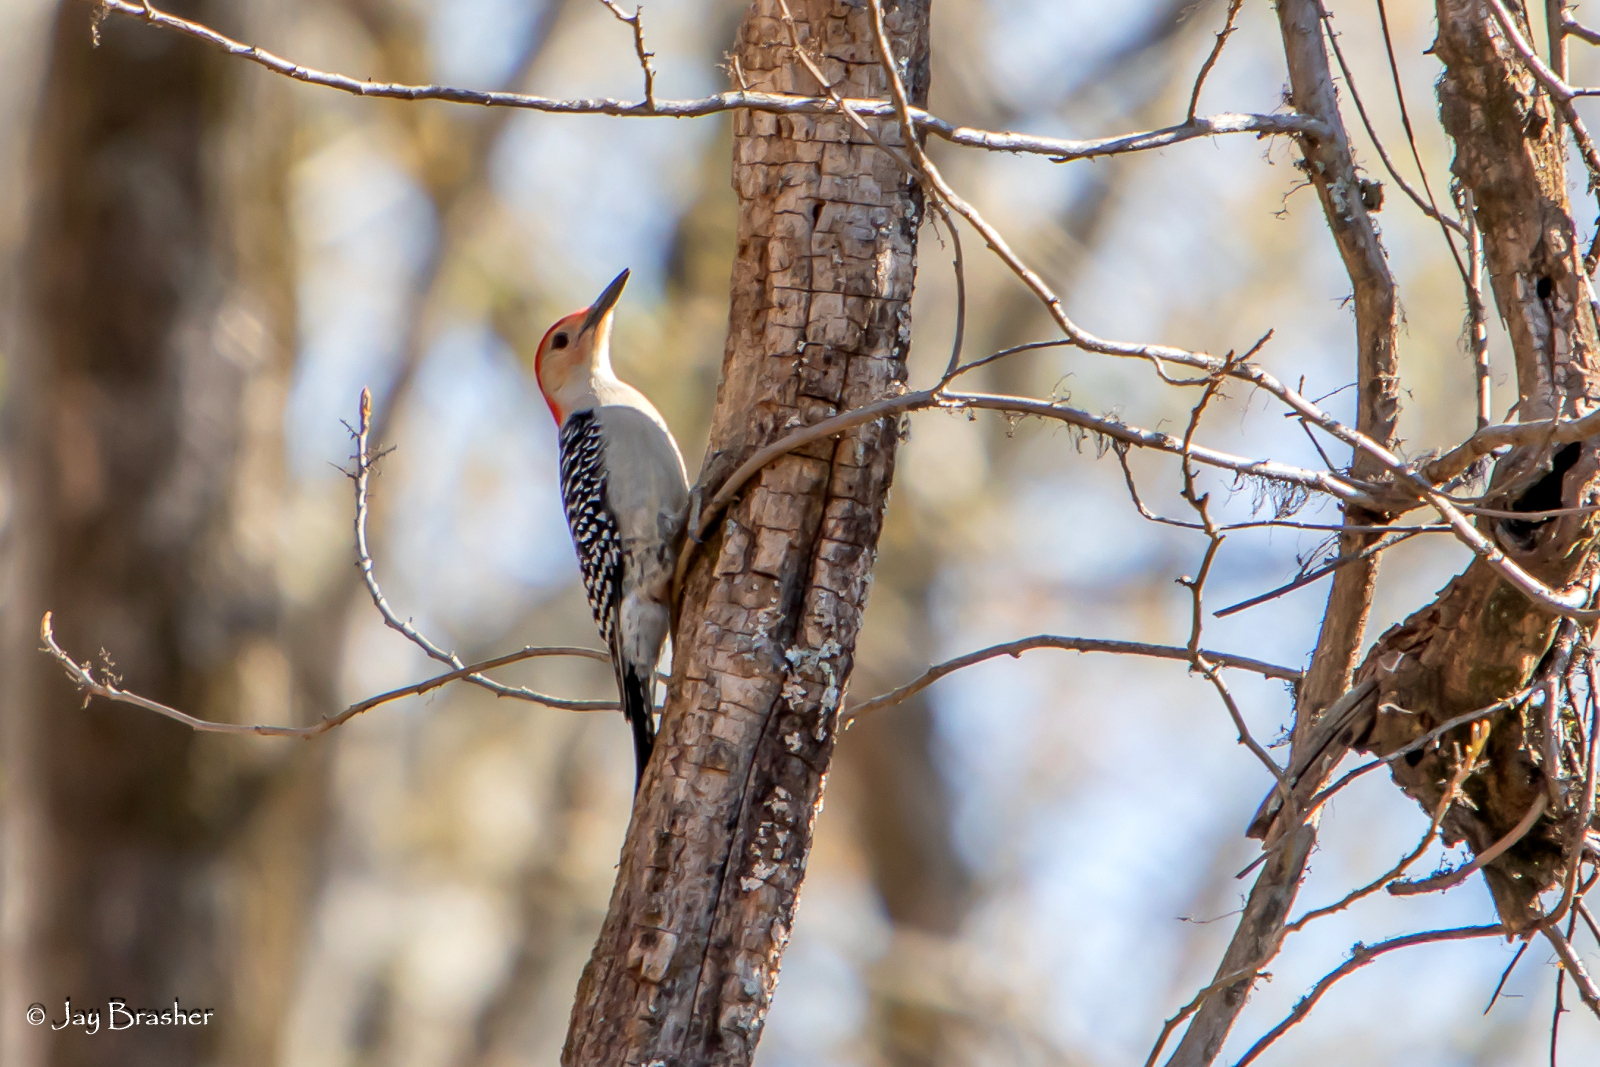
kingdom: Animalia
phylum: Chordata
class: Aves
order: Piciformes
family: Picidae
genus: Melanerpes
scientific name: Melanerpes carolinus
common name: Red-bellied woodpecker
